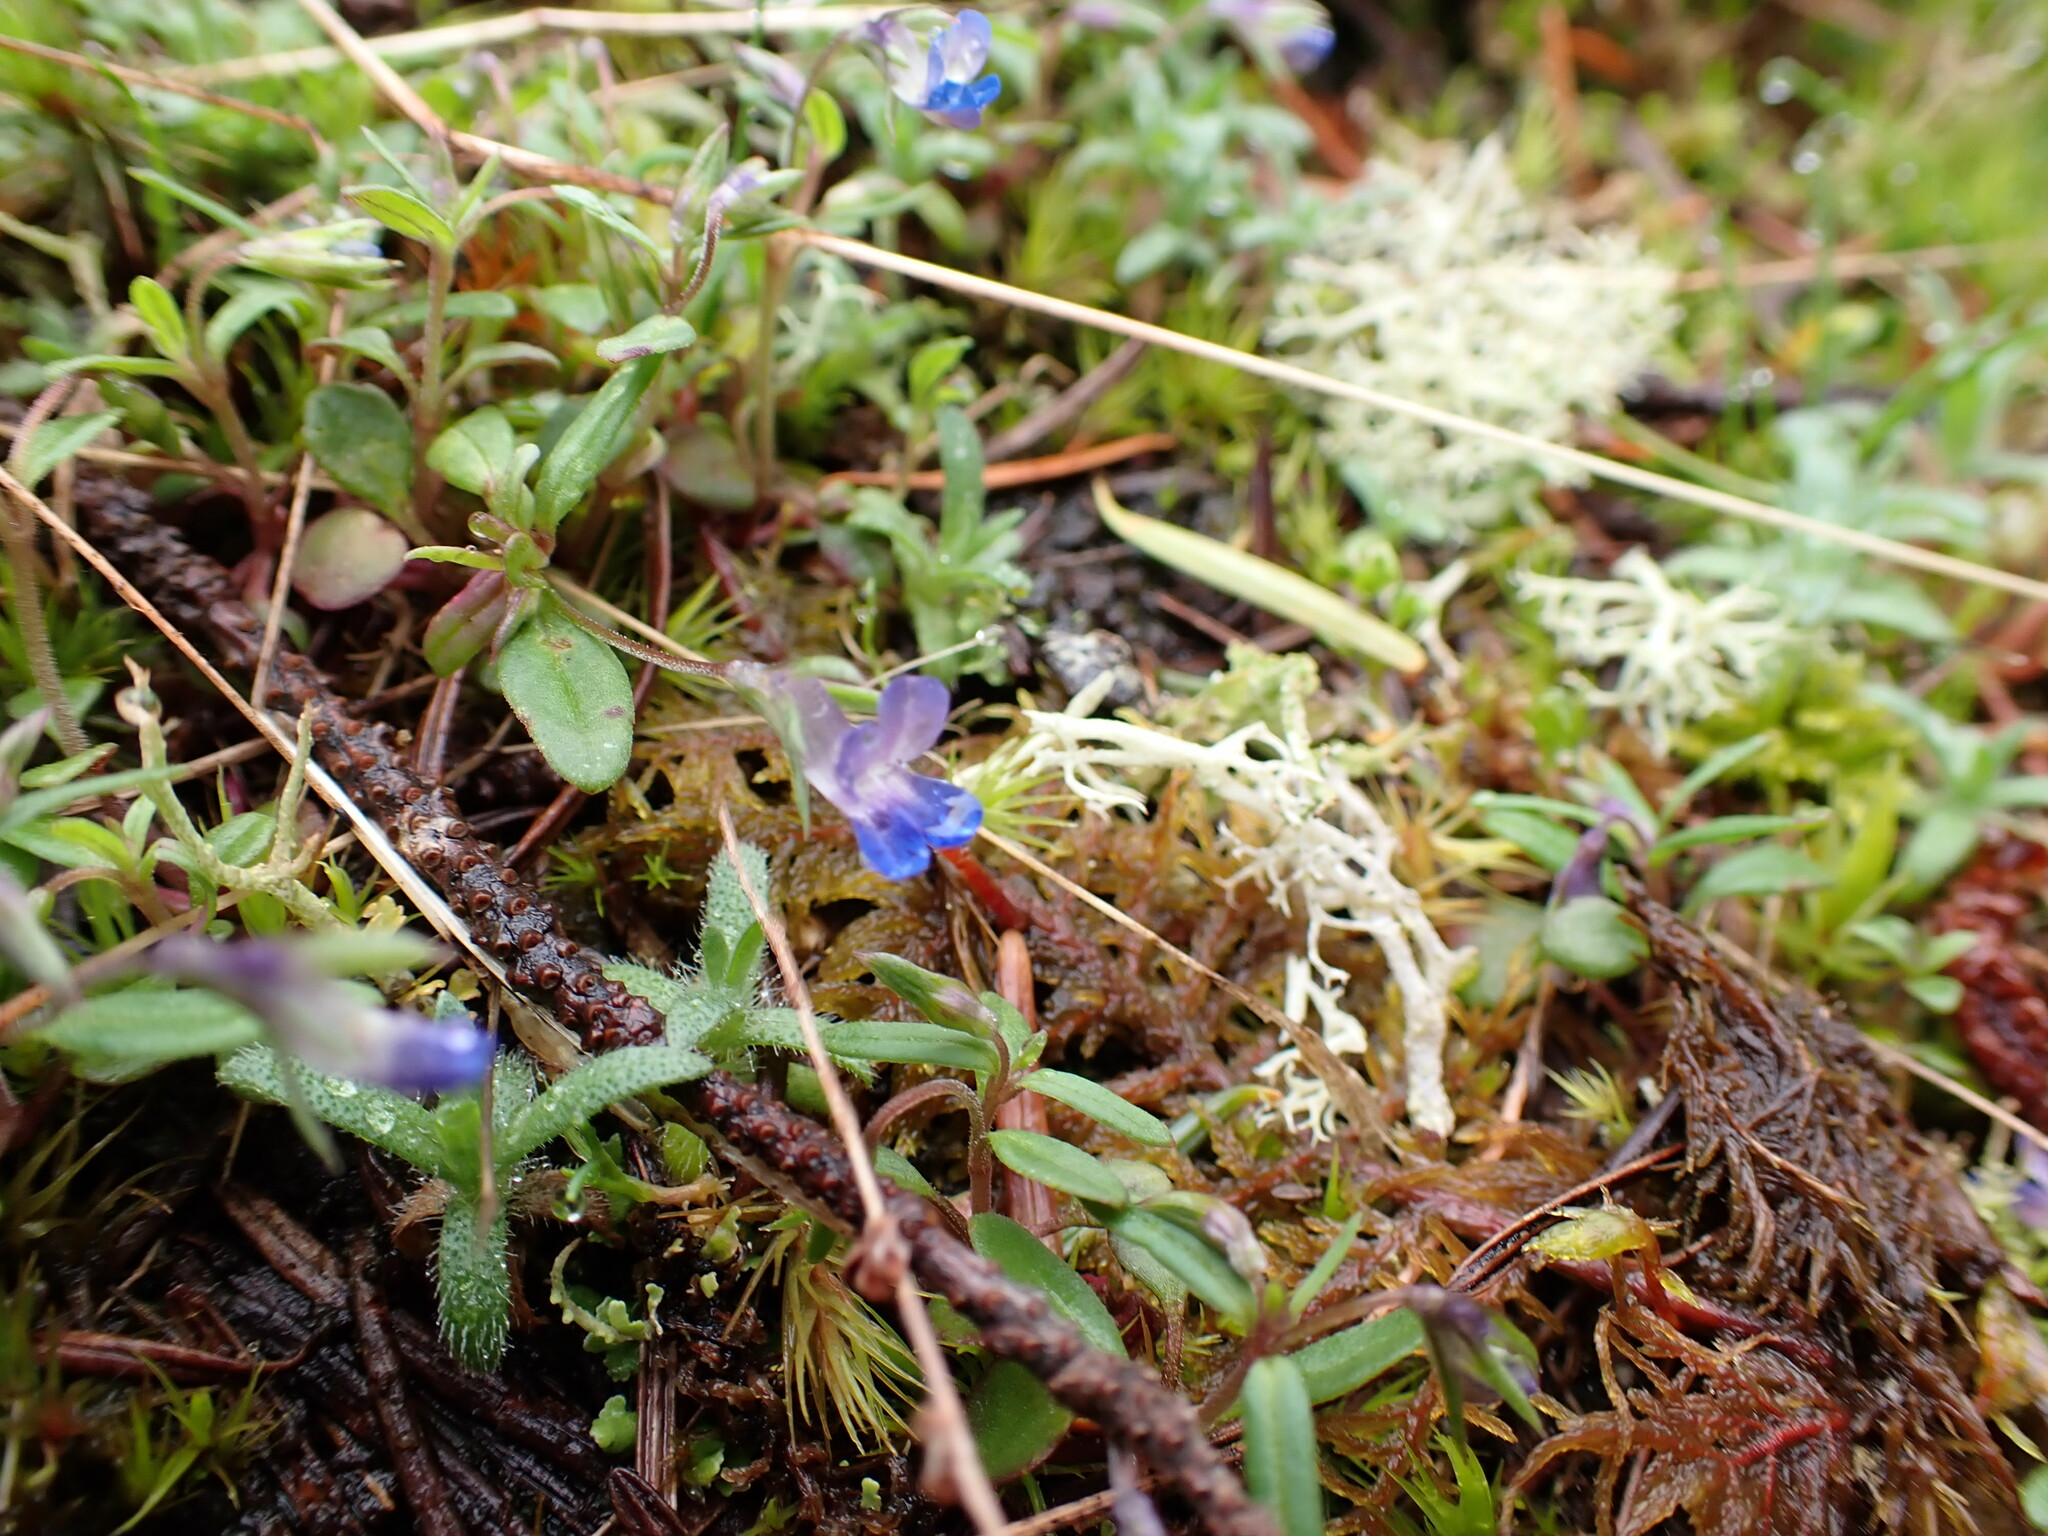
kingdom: Plantae
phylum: Tracheophyta
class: Magnoliopsida
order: Lamiales
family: Plantaginaceae
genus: Collinsia
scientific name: Collinsia parviflora
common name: Blue-lips
